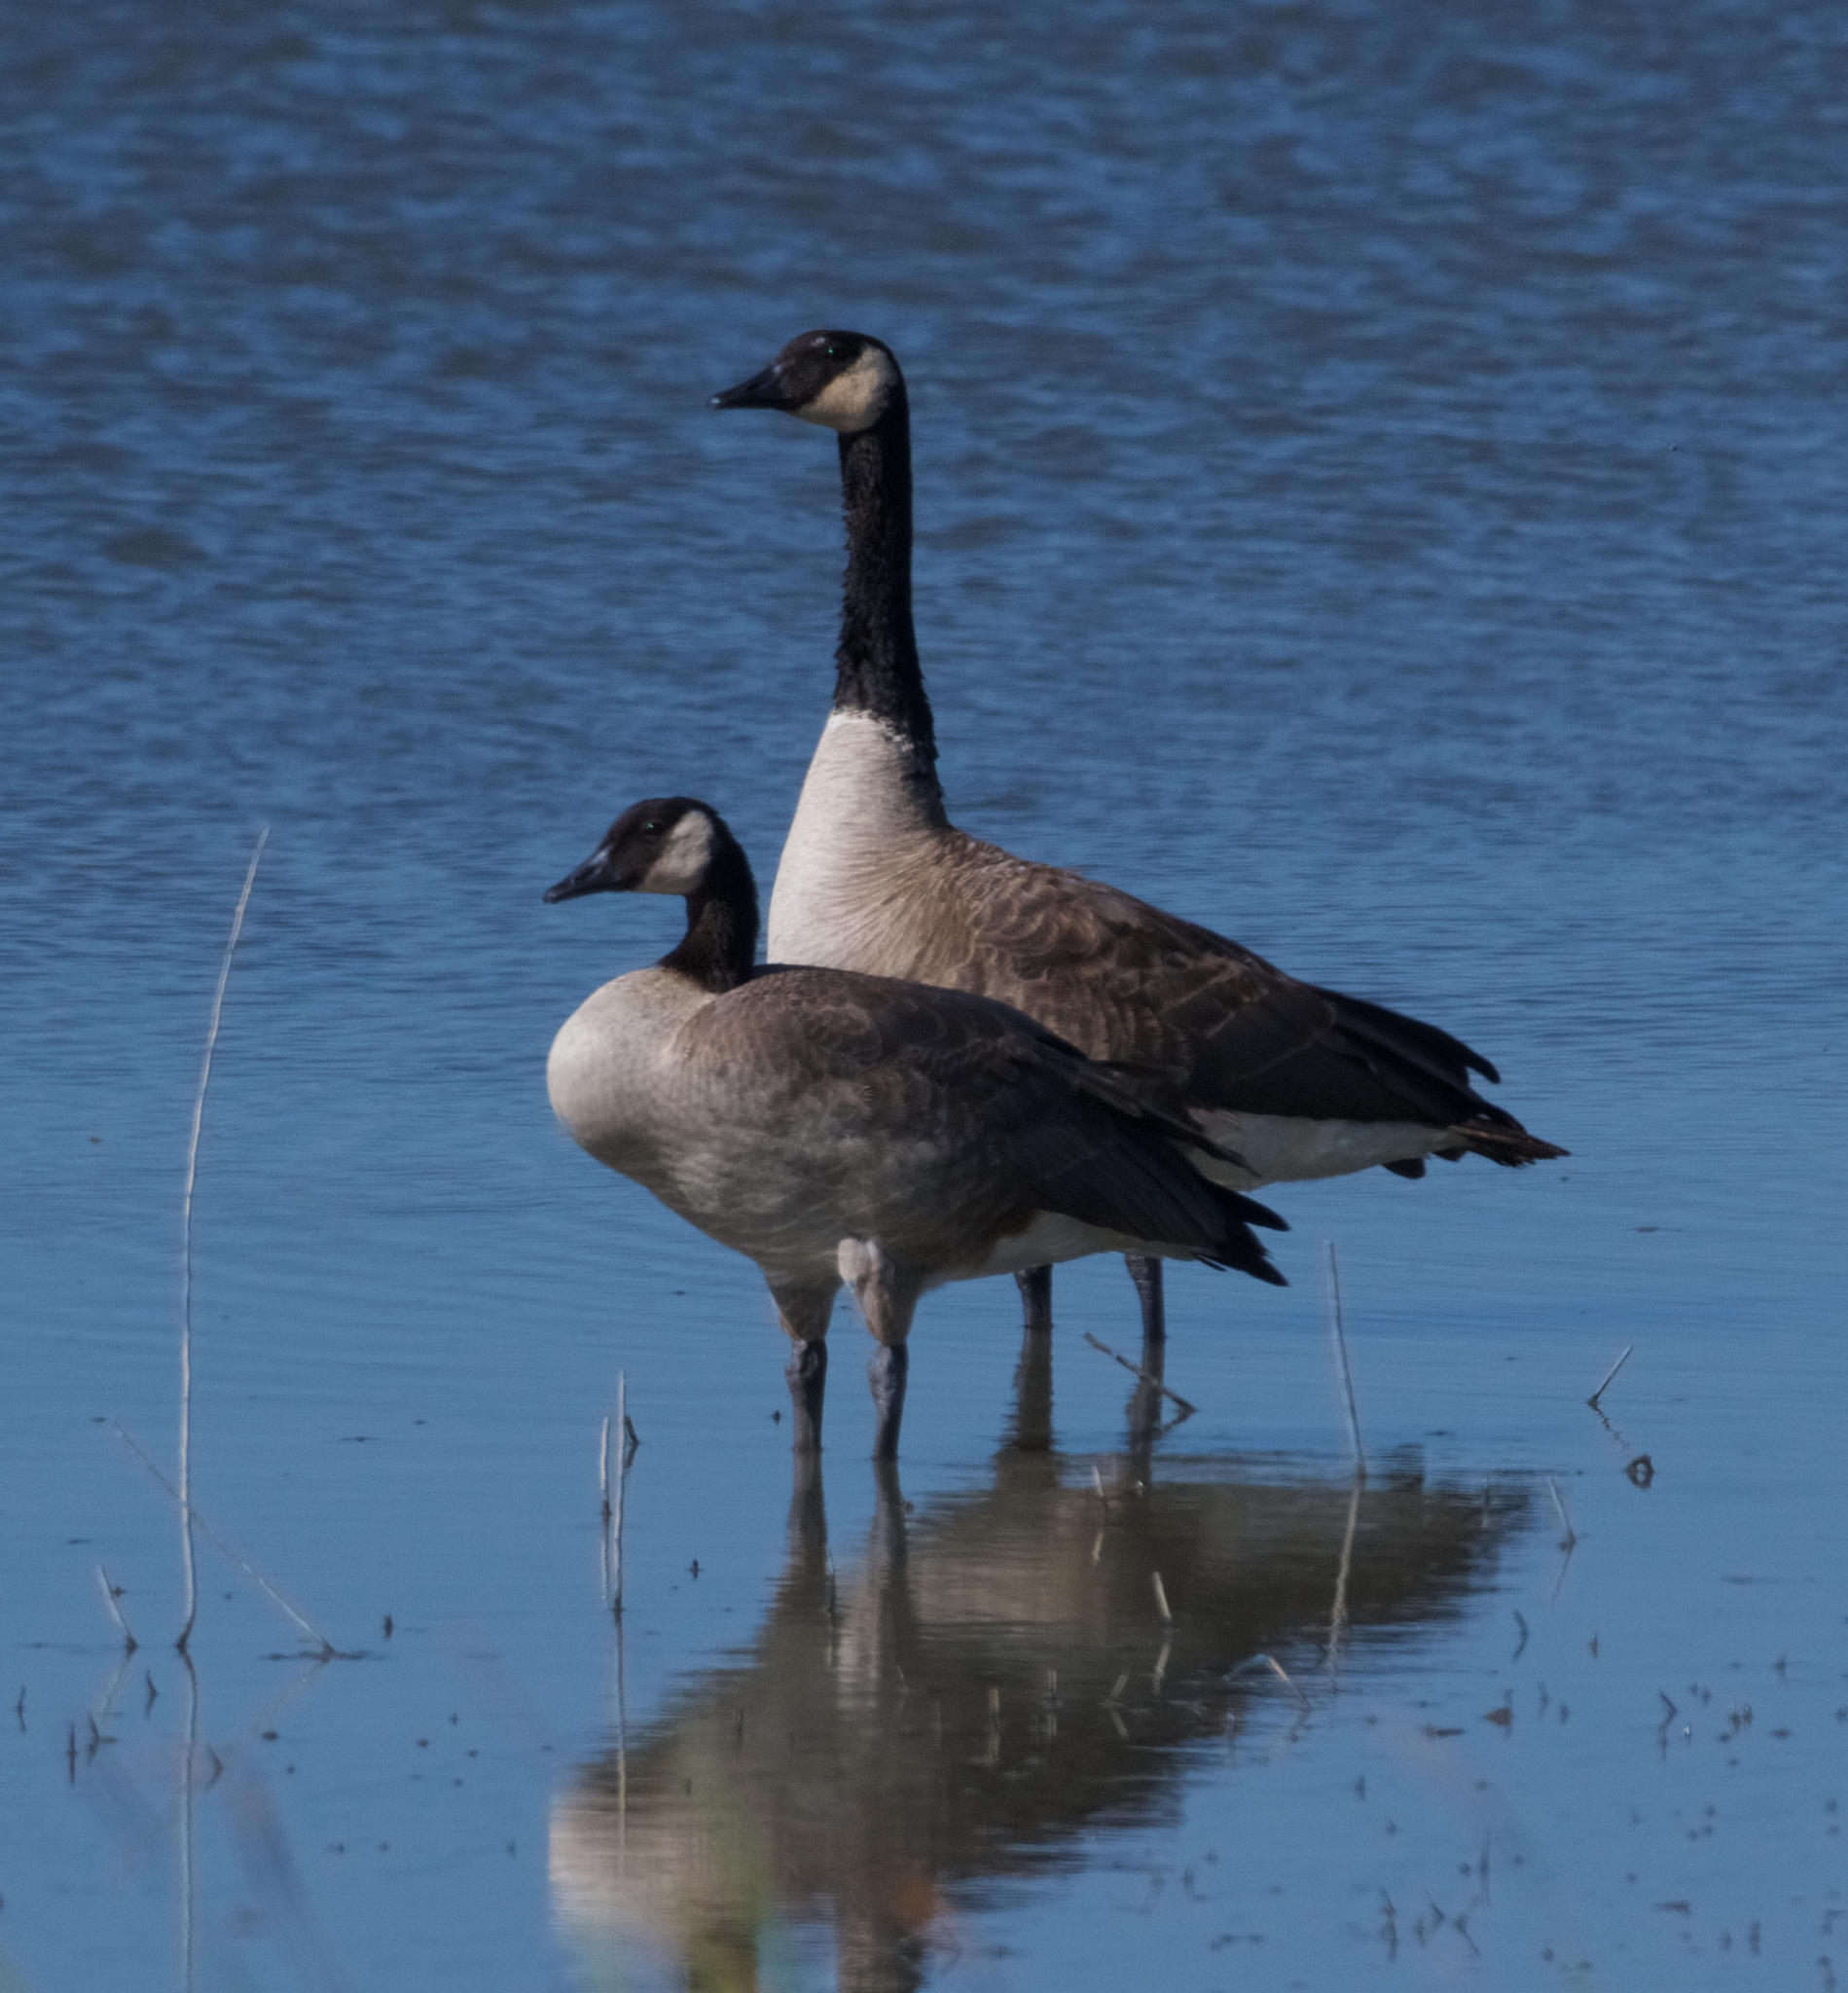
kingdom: Animalia
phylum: Chordata
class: Aves
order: Anseriformes
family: Anatidae
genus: Branta
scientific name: Branta canadensis
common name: Canada goose
